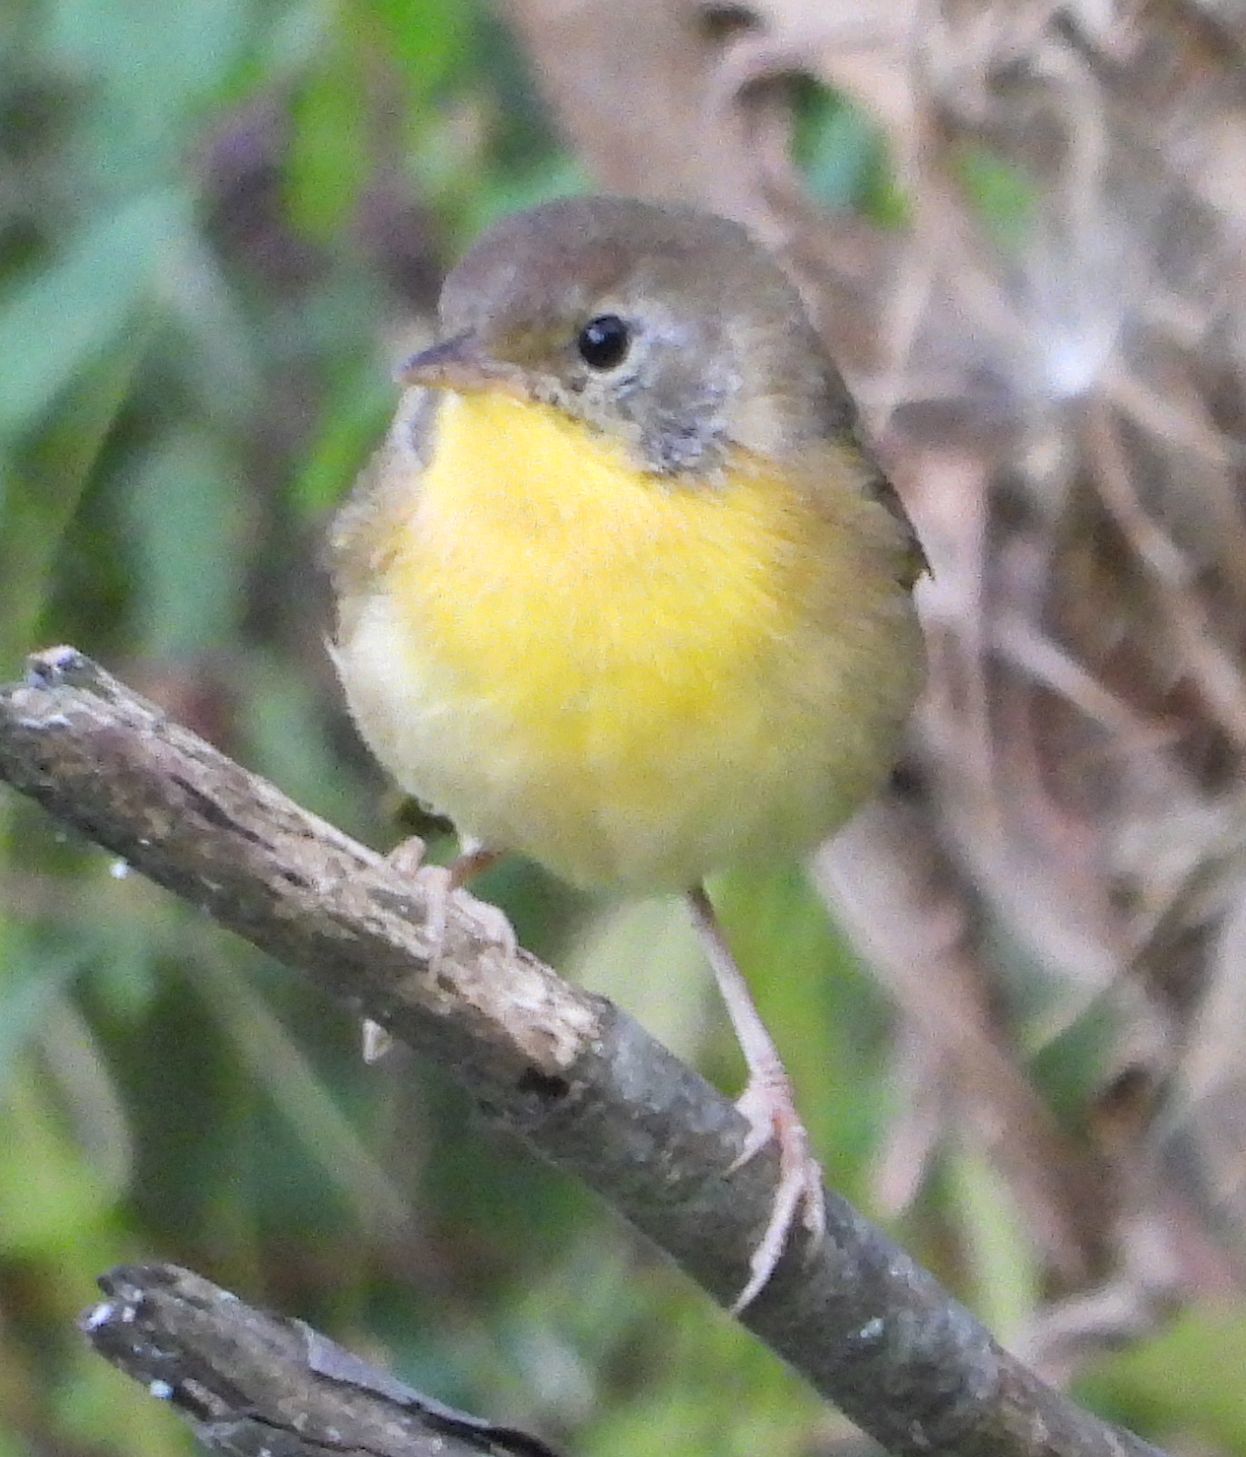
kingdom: Animalia
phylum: Chordata
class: Aves
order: Passeriformes
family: Parulidae
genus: Geothlypis
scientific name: Geothlypis trichas
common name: Common yellowthroat
